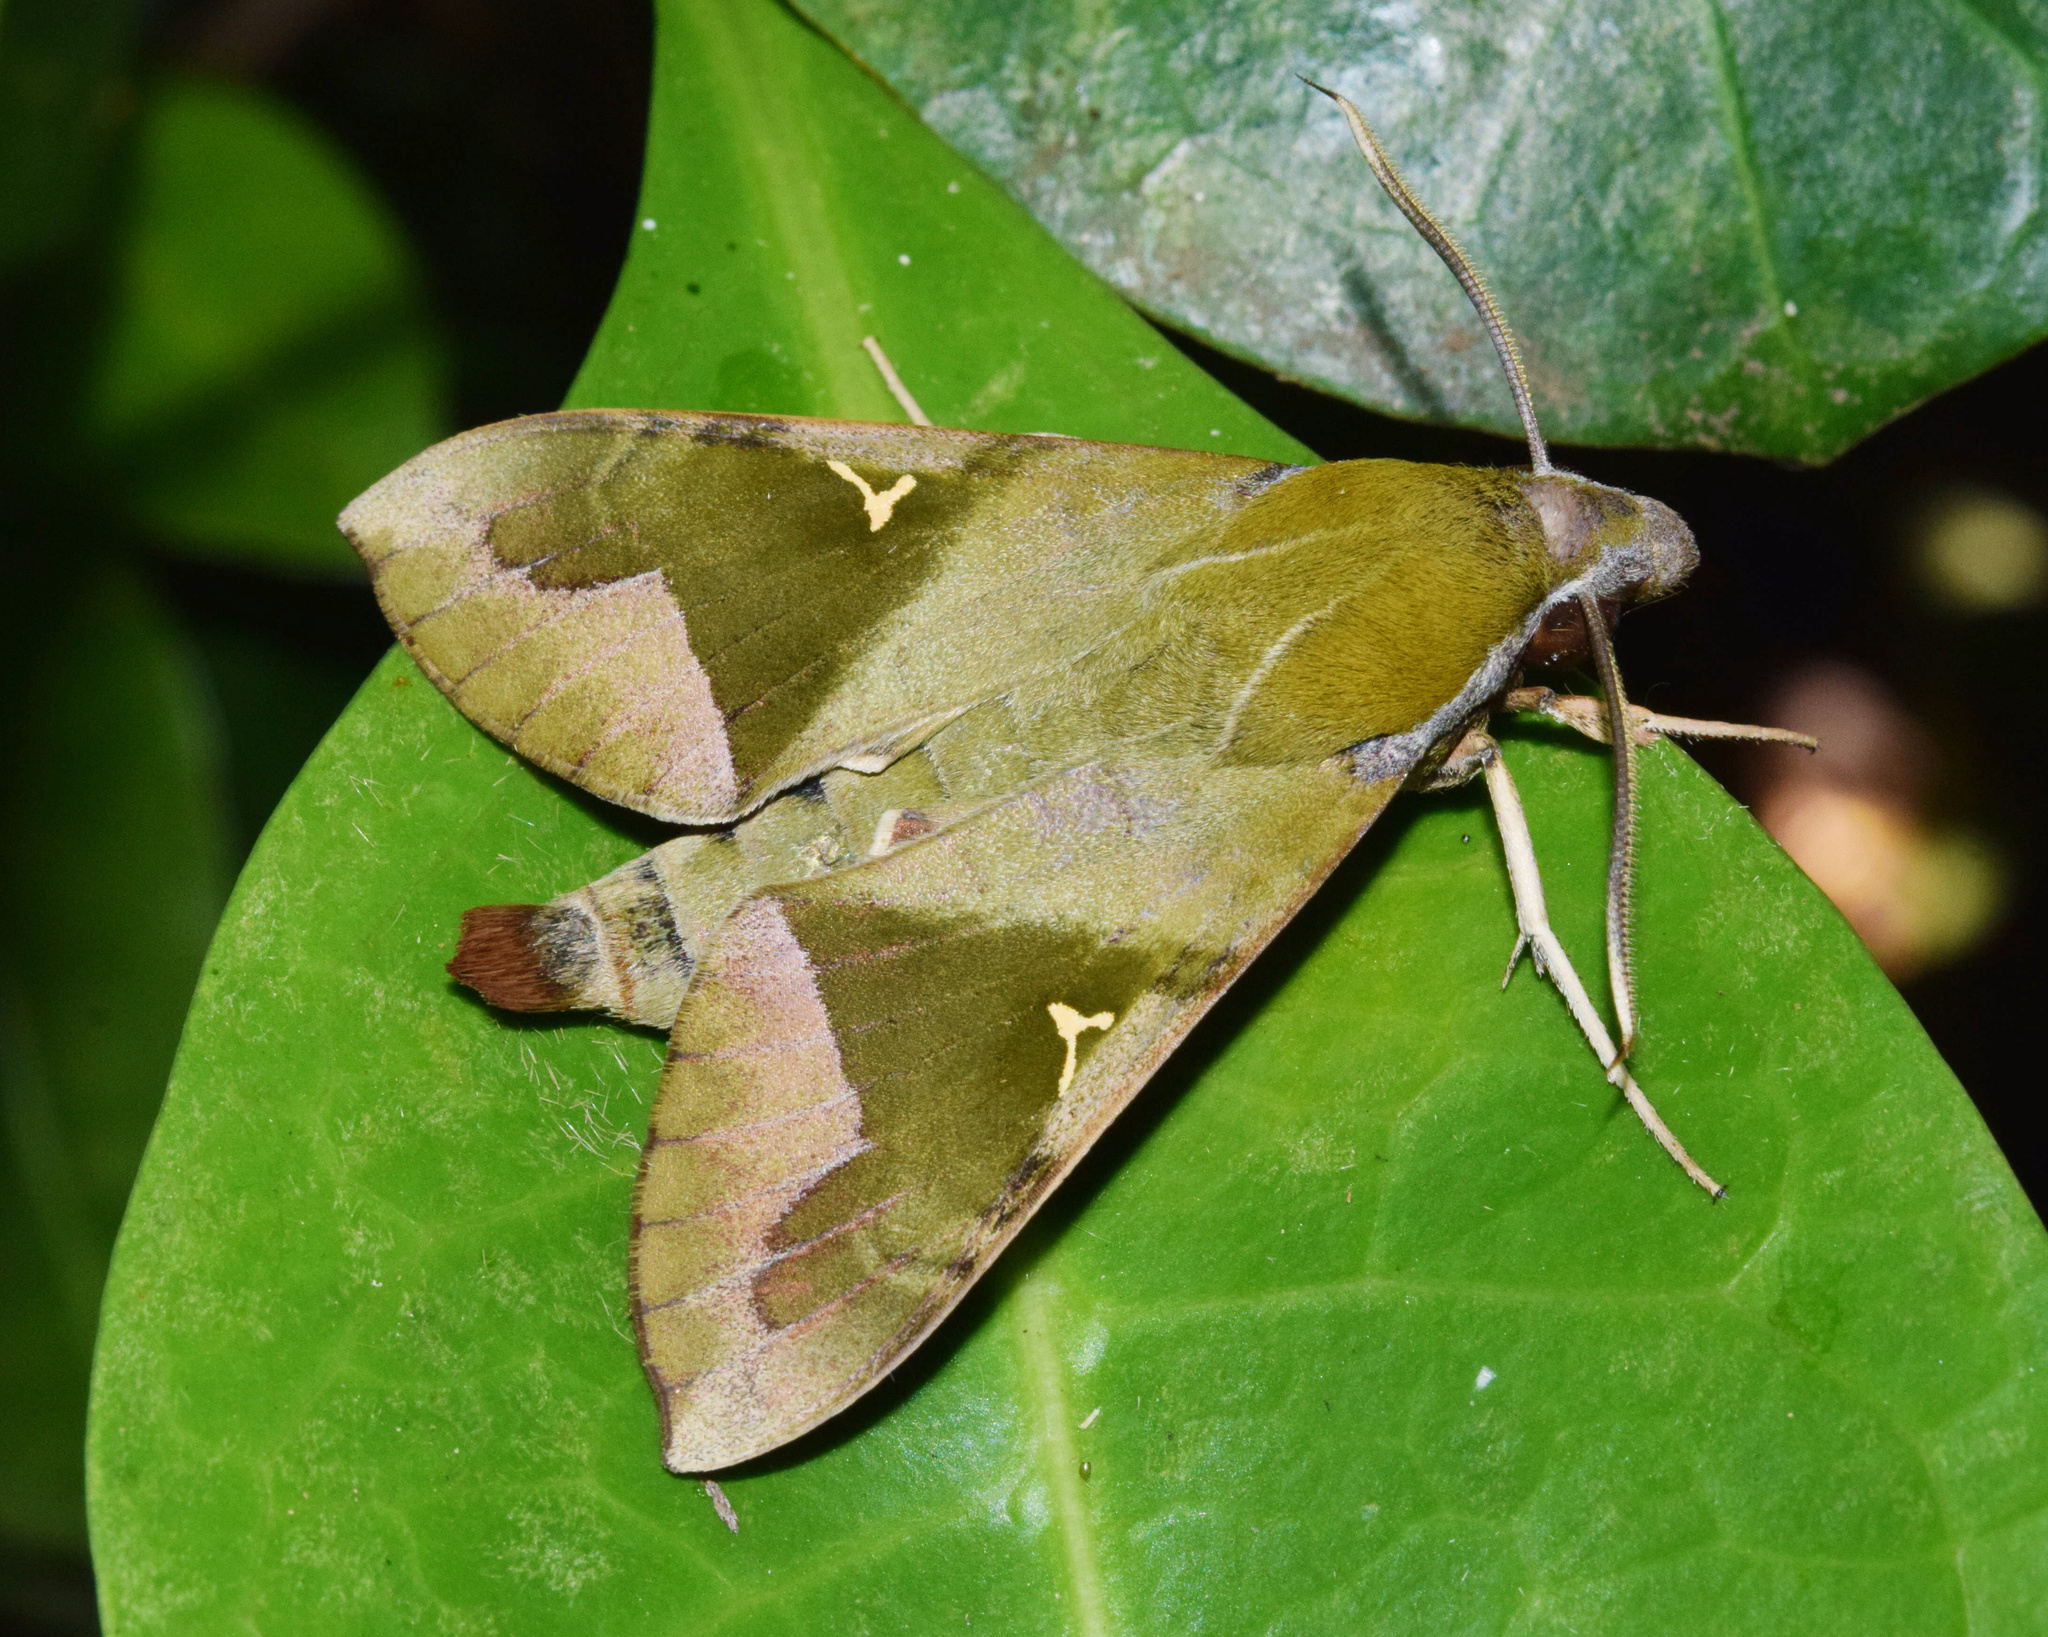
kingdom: Animalia
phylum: Arthropoda
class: Insecta
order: Lepidoptera
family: Sphingidae
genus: Nephele
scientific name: Nephele vau
